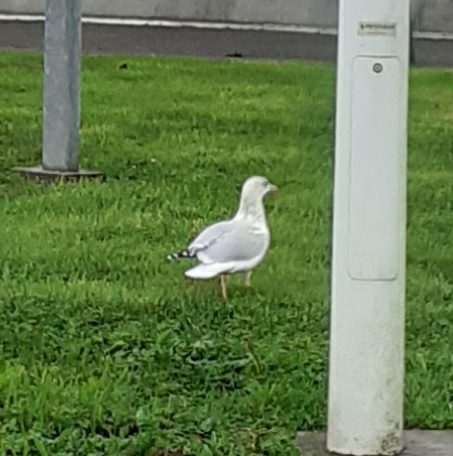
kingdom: Animalia
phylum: Chordata
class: Aves
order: Charadriiformes
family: Laridae
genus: Larus
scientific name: Larus argentatus
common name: Herring gull
